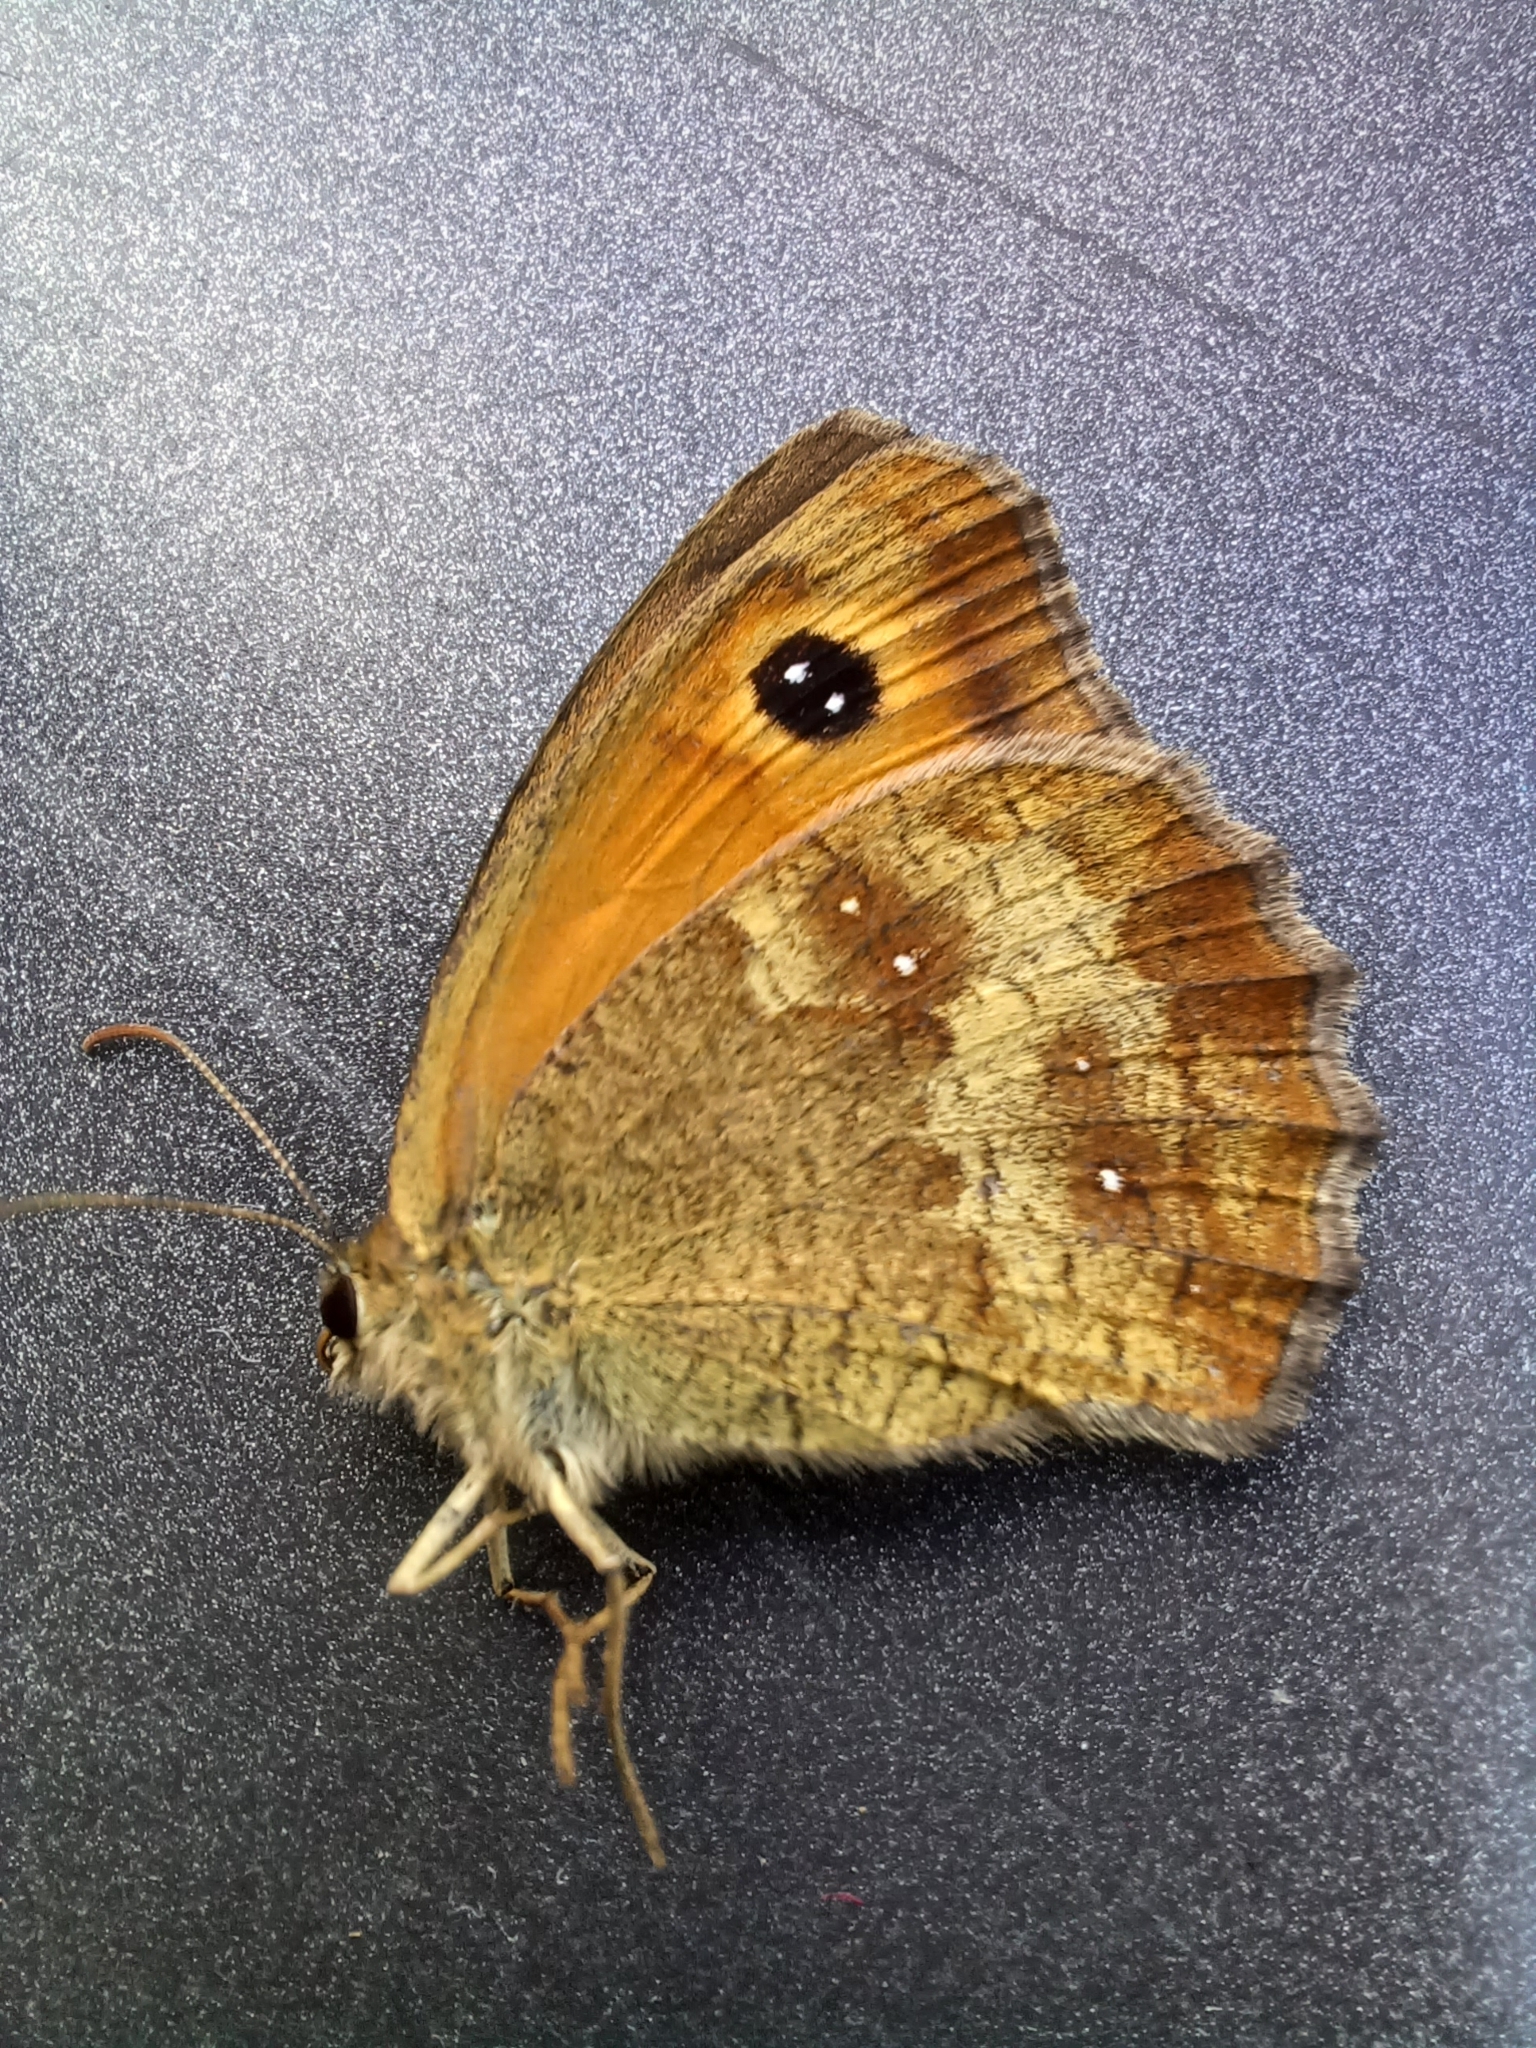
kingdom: Animalia
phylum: Arthropoda
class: Insecta
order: Lepidoptera
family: Nymphalidae
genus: Pyronia
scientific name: Pyronia tithonus
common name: Gatekeeper
